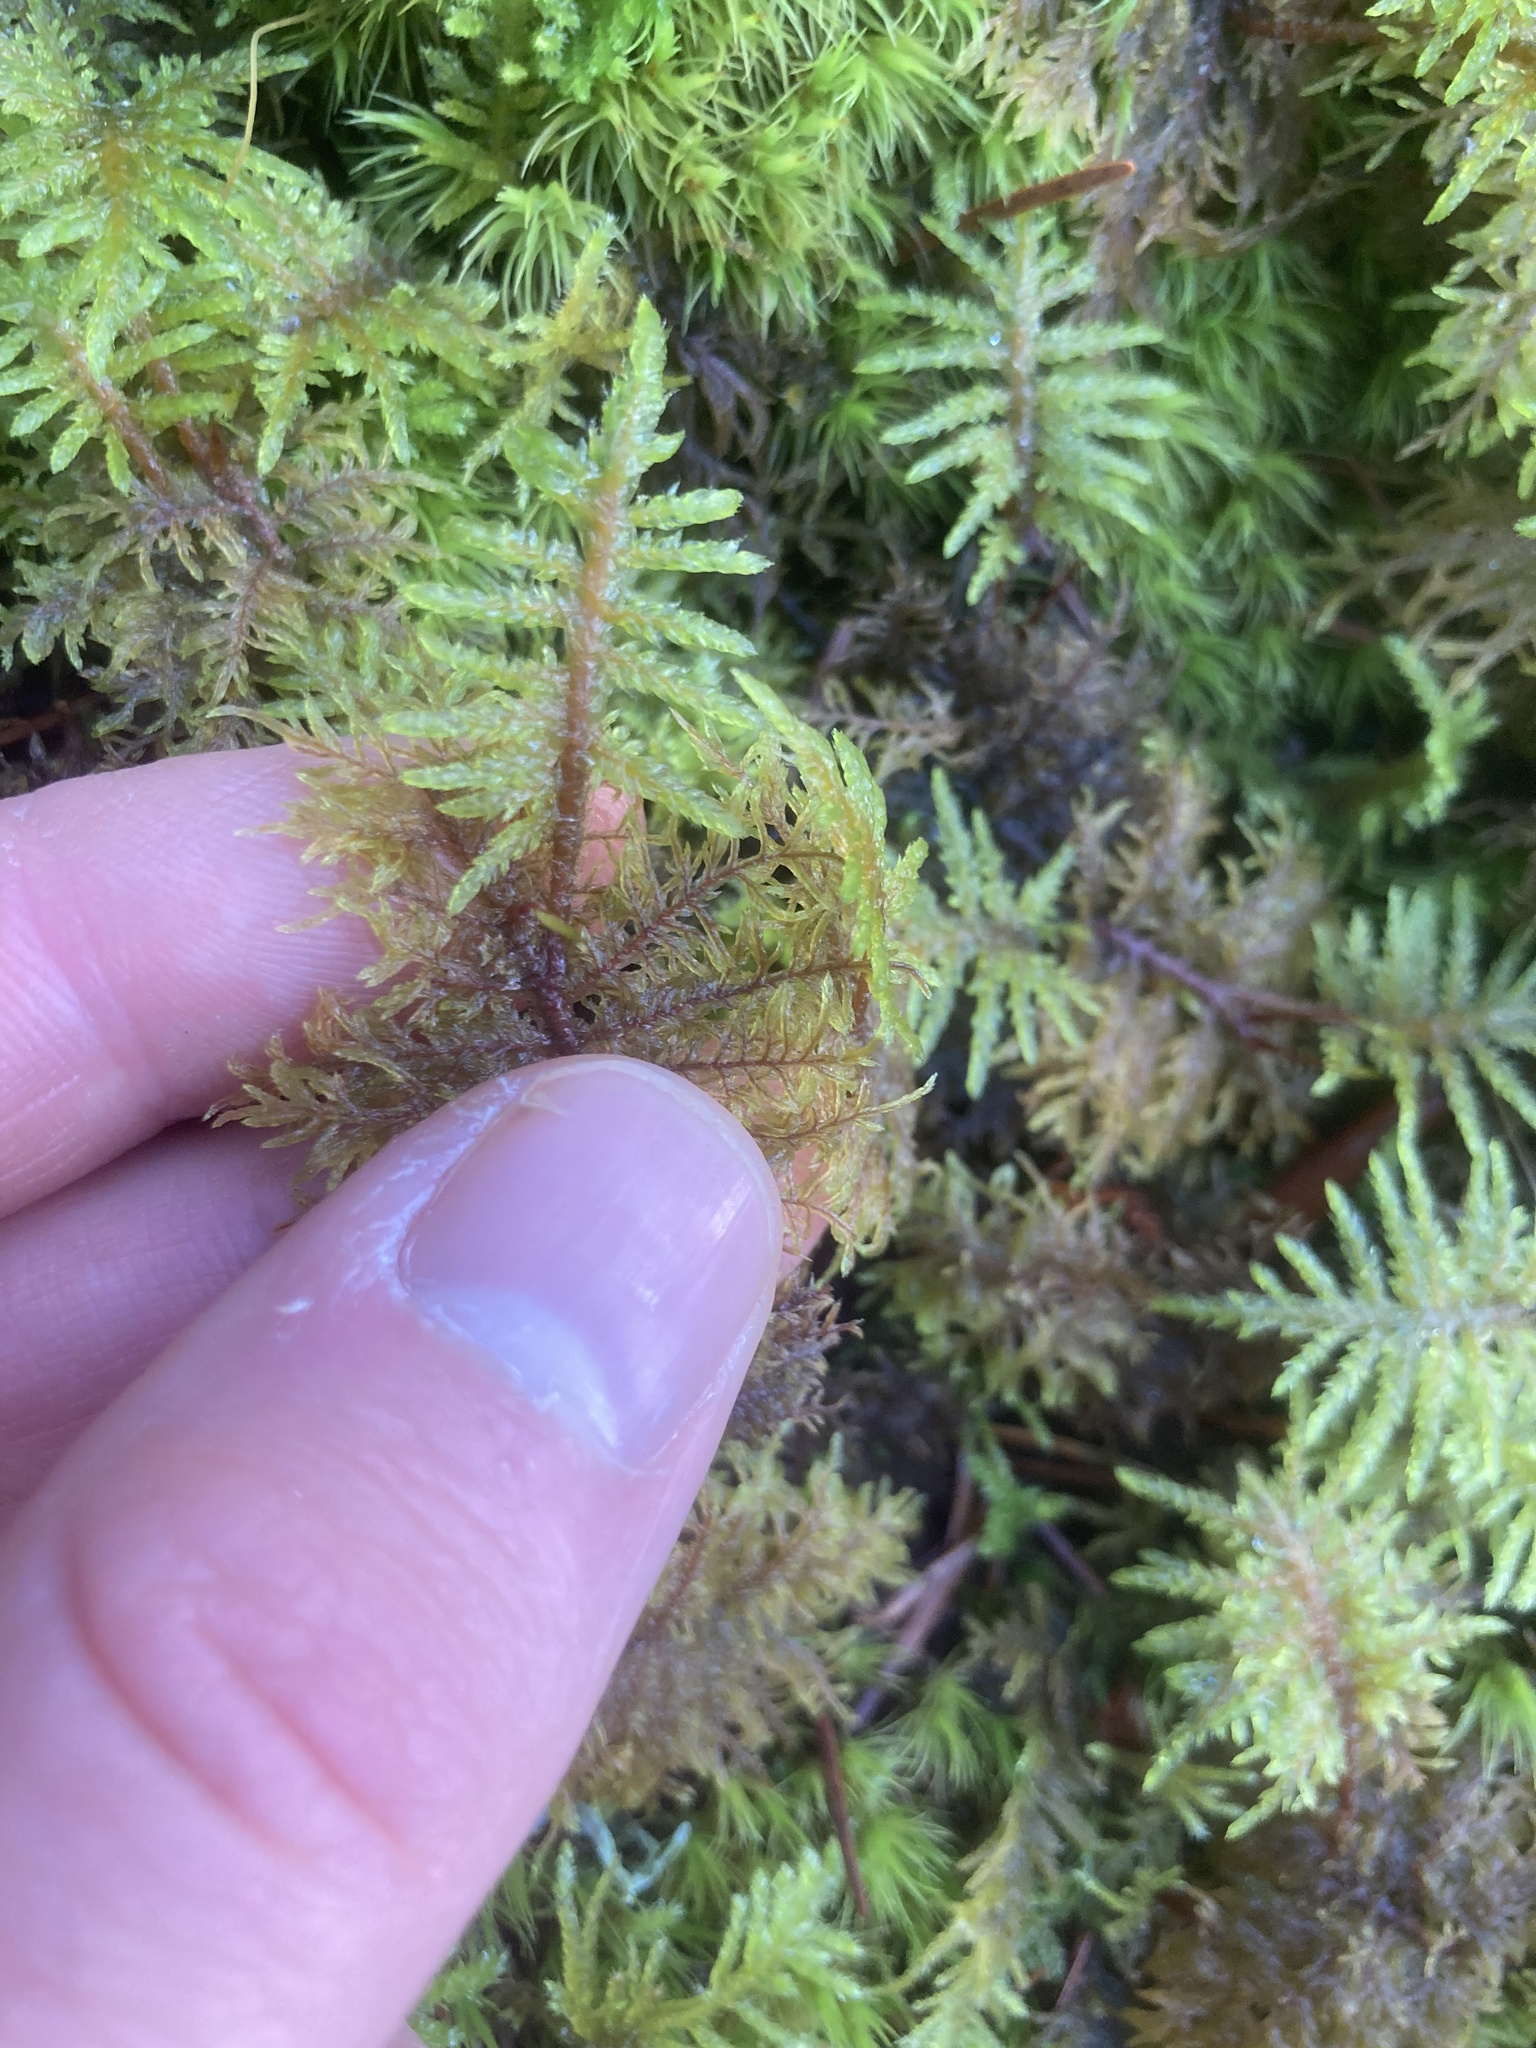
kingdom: Plantae
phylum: Bryophyta
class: Bryopsida
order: Hypnales
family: Hylocomiaceae
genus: Hylocomium
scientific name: Hylocomium splendens
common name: Stairstep moss
